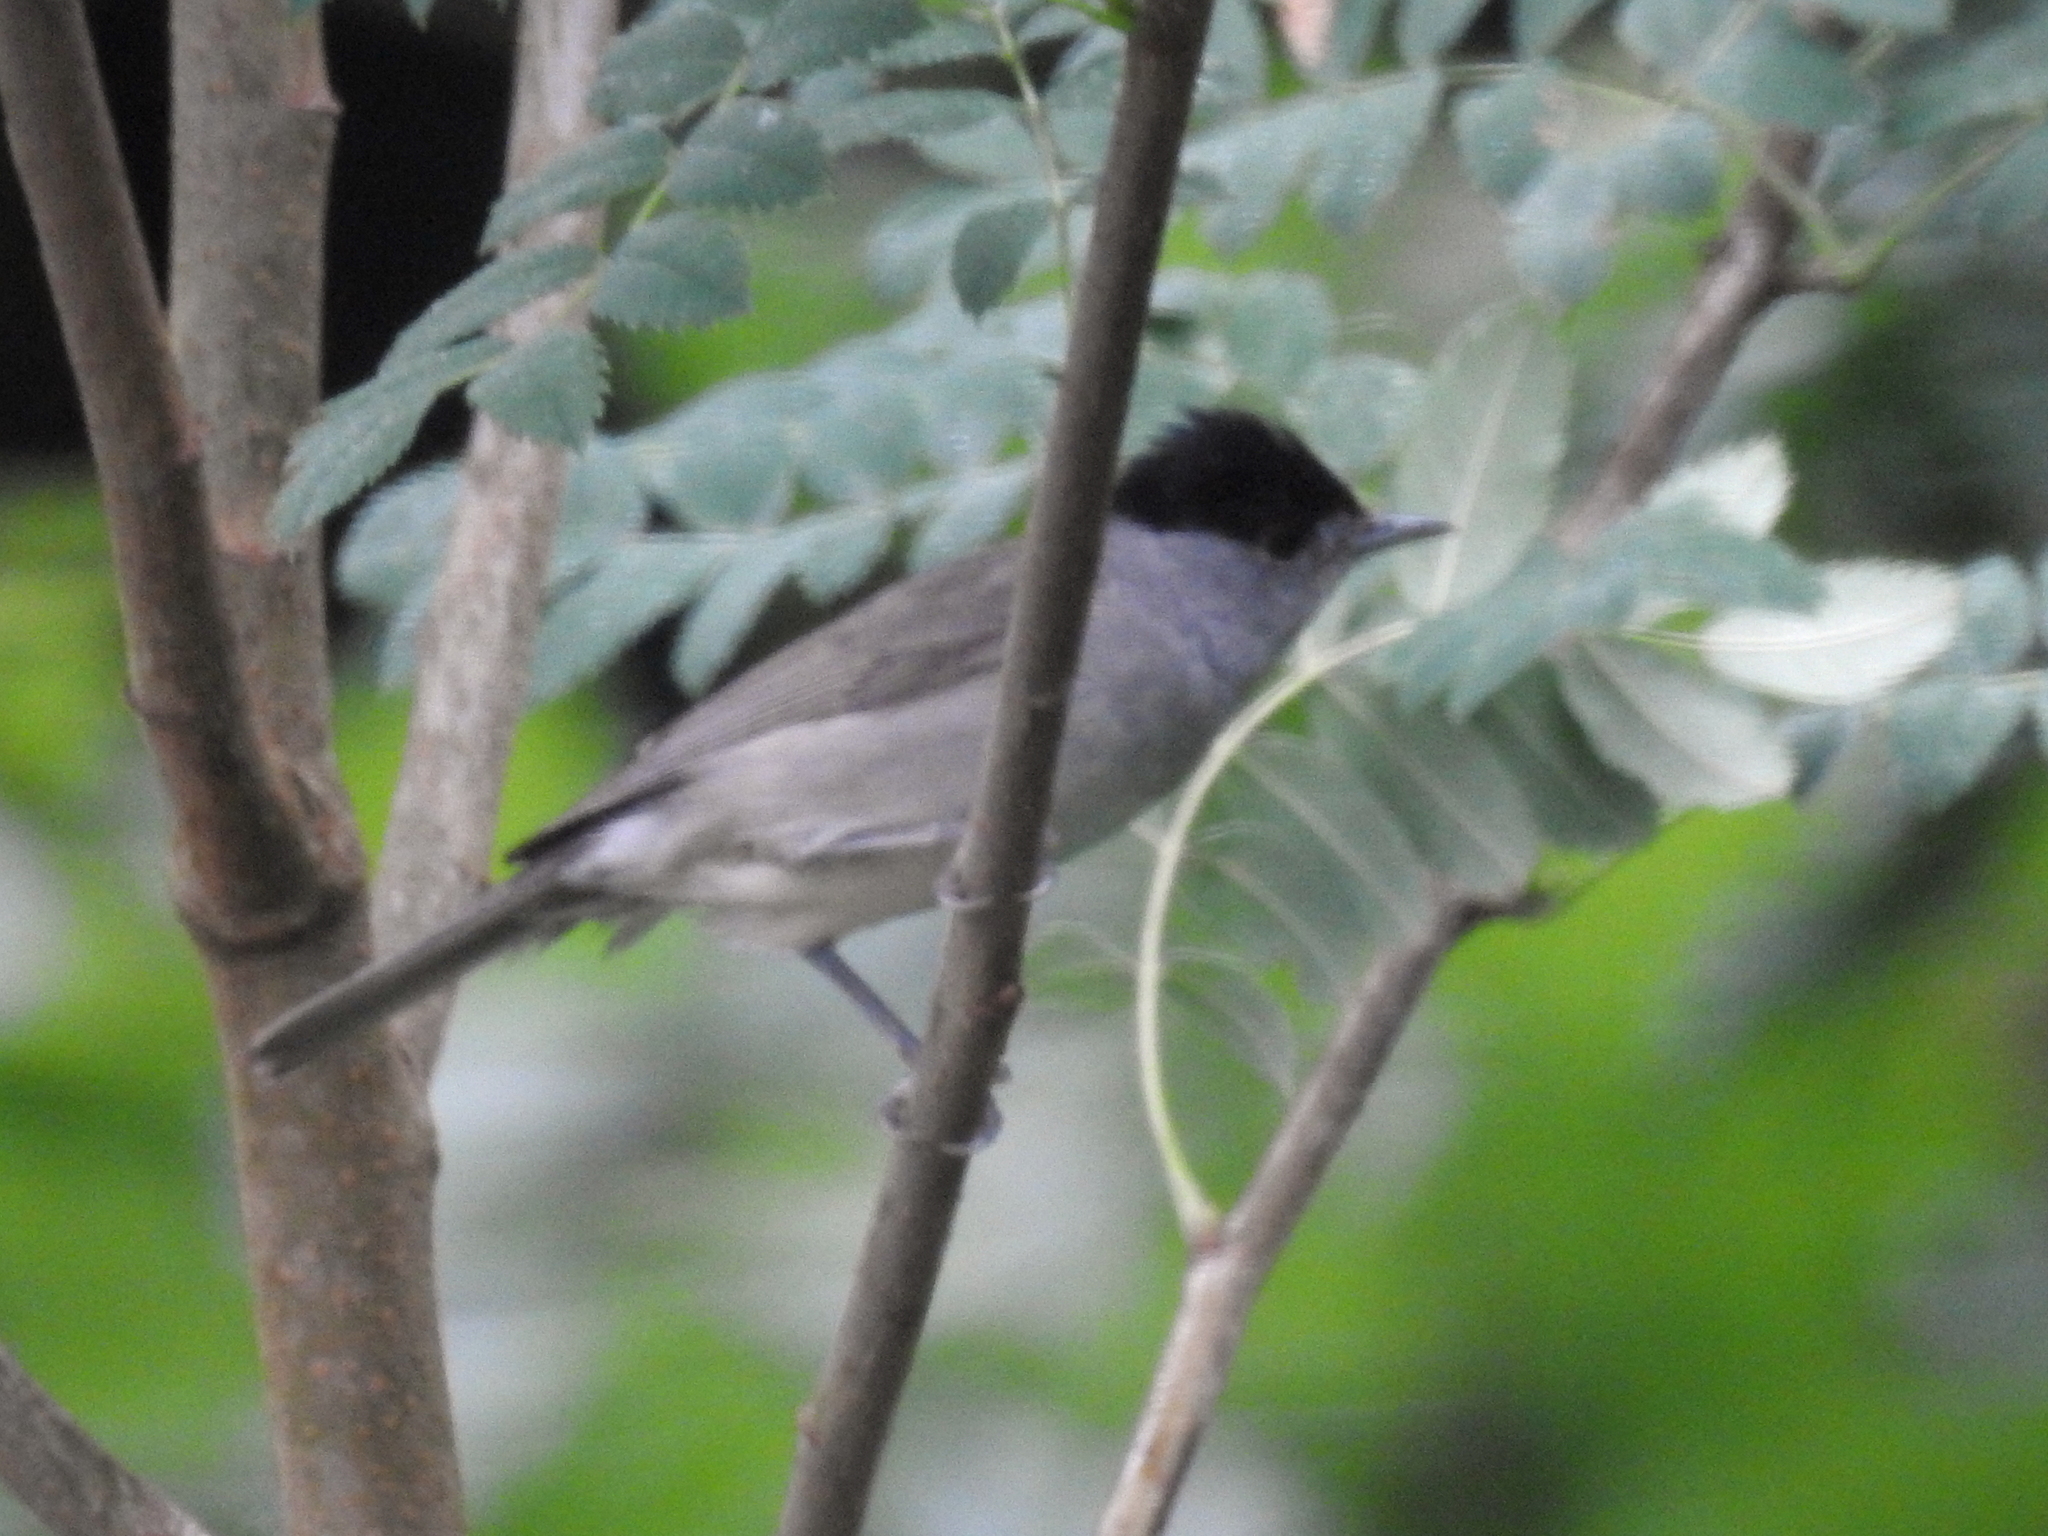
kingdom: Animalia
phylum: Chordata
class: Aves
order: Passeriformes
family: Sylviidae
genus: Sylvia
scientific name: Sylvia atricapilla
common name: Eurasian blackcap
